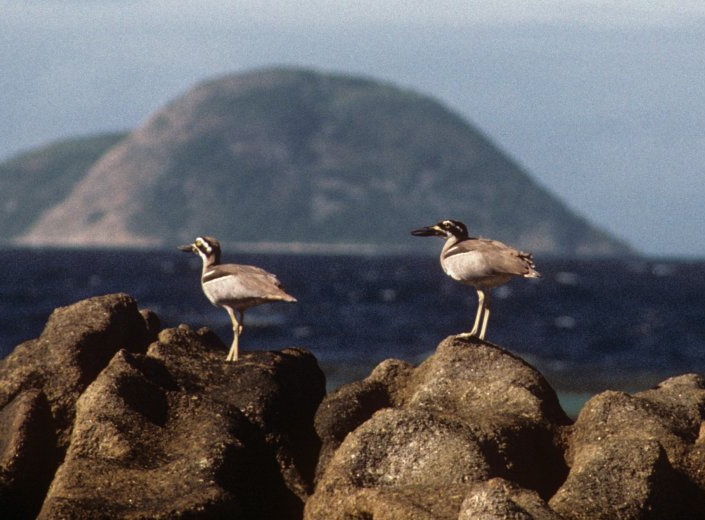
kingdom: Animalia
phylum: Chordata
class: Aves
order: Charadriiformes
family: Burhinidae
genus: Esacus
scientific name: Esacus magnirostris
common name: Beach stone-curlew
